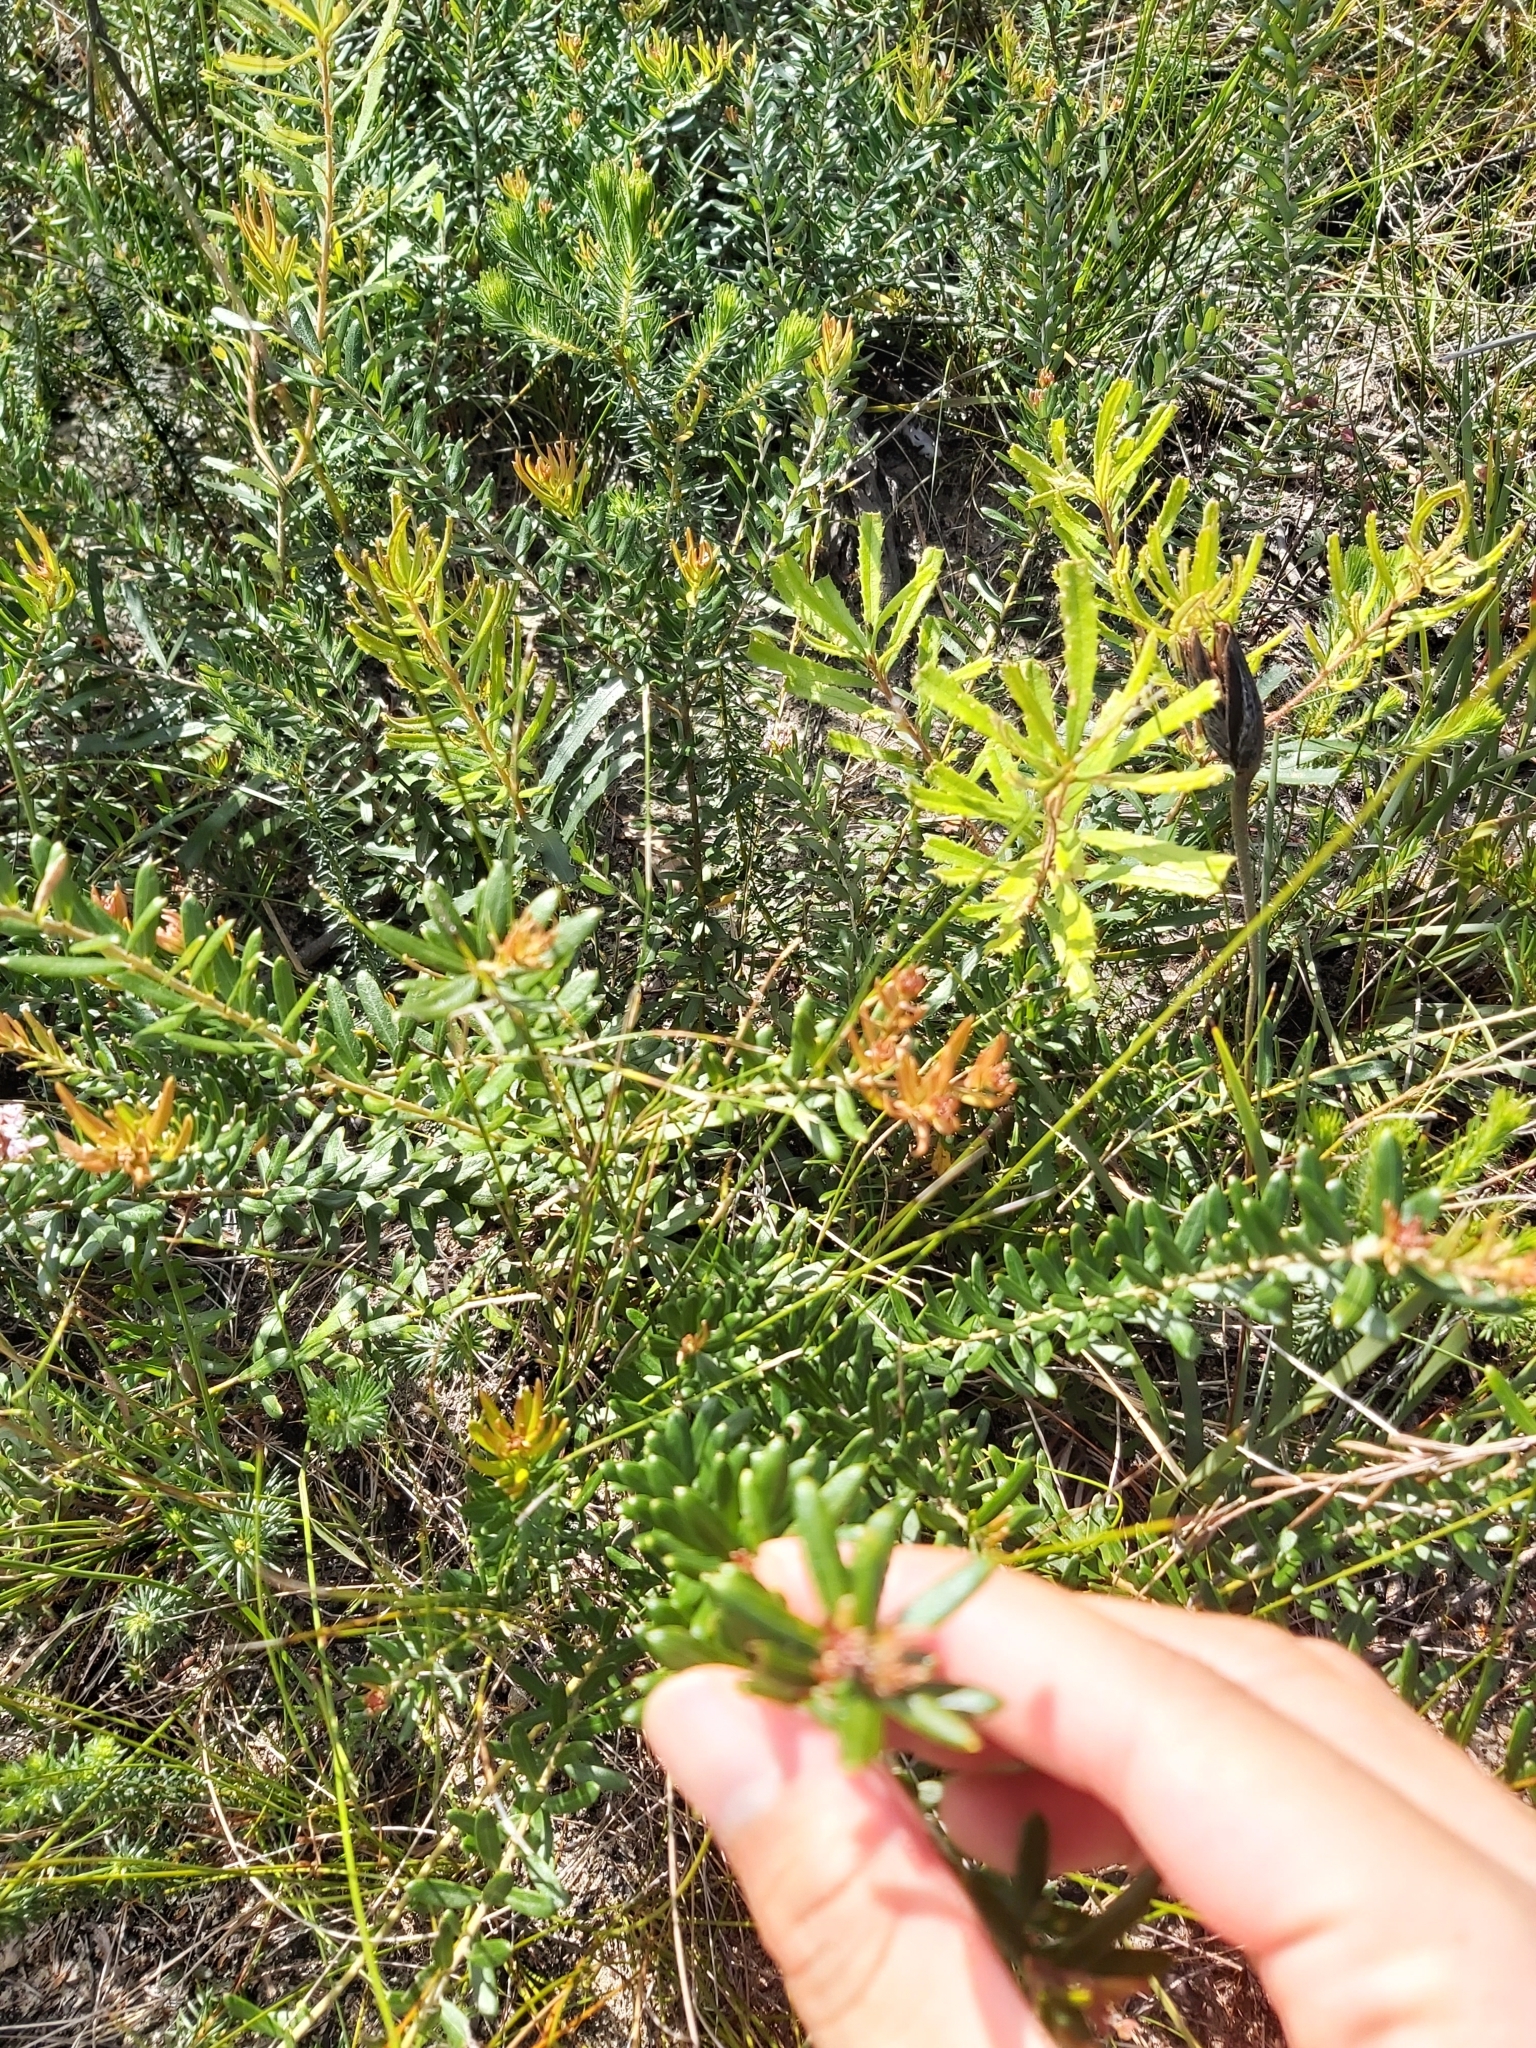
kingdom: Plantae
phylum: Tracheophyta
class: Magnoliopsida
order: Proteales
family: Proteaceae
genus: Grevillea
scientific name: Grevillea sphacelata
